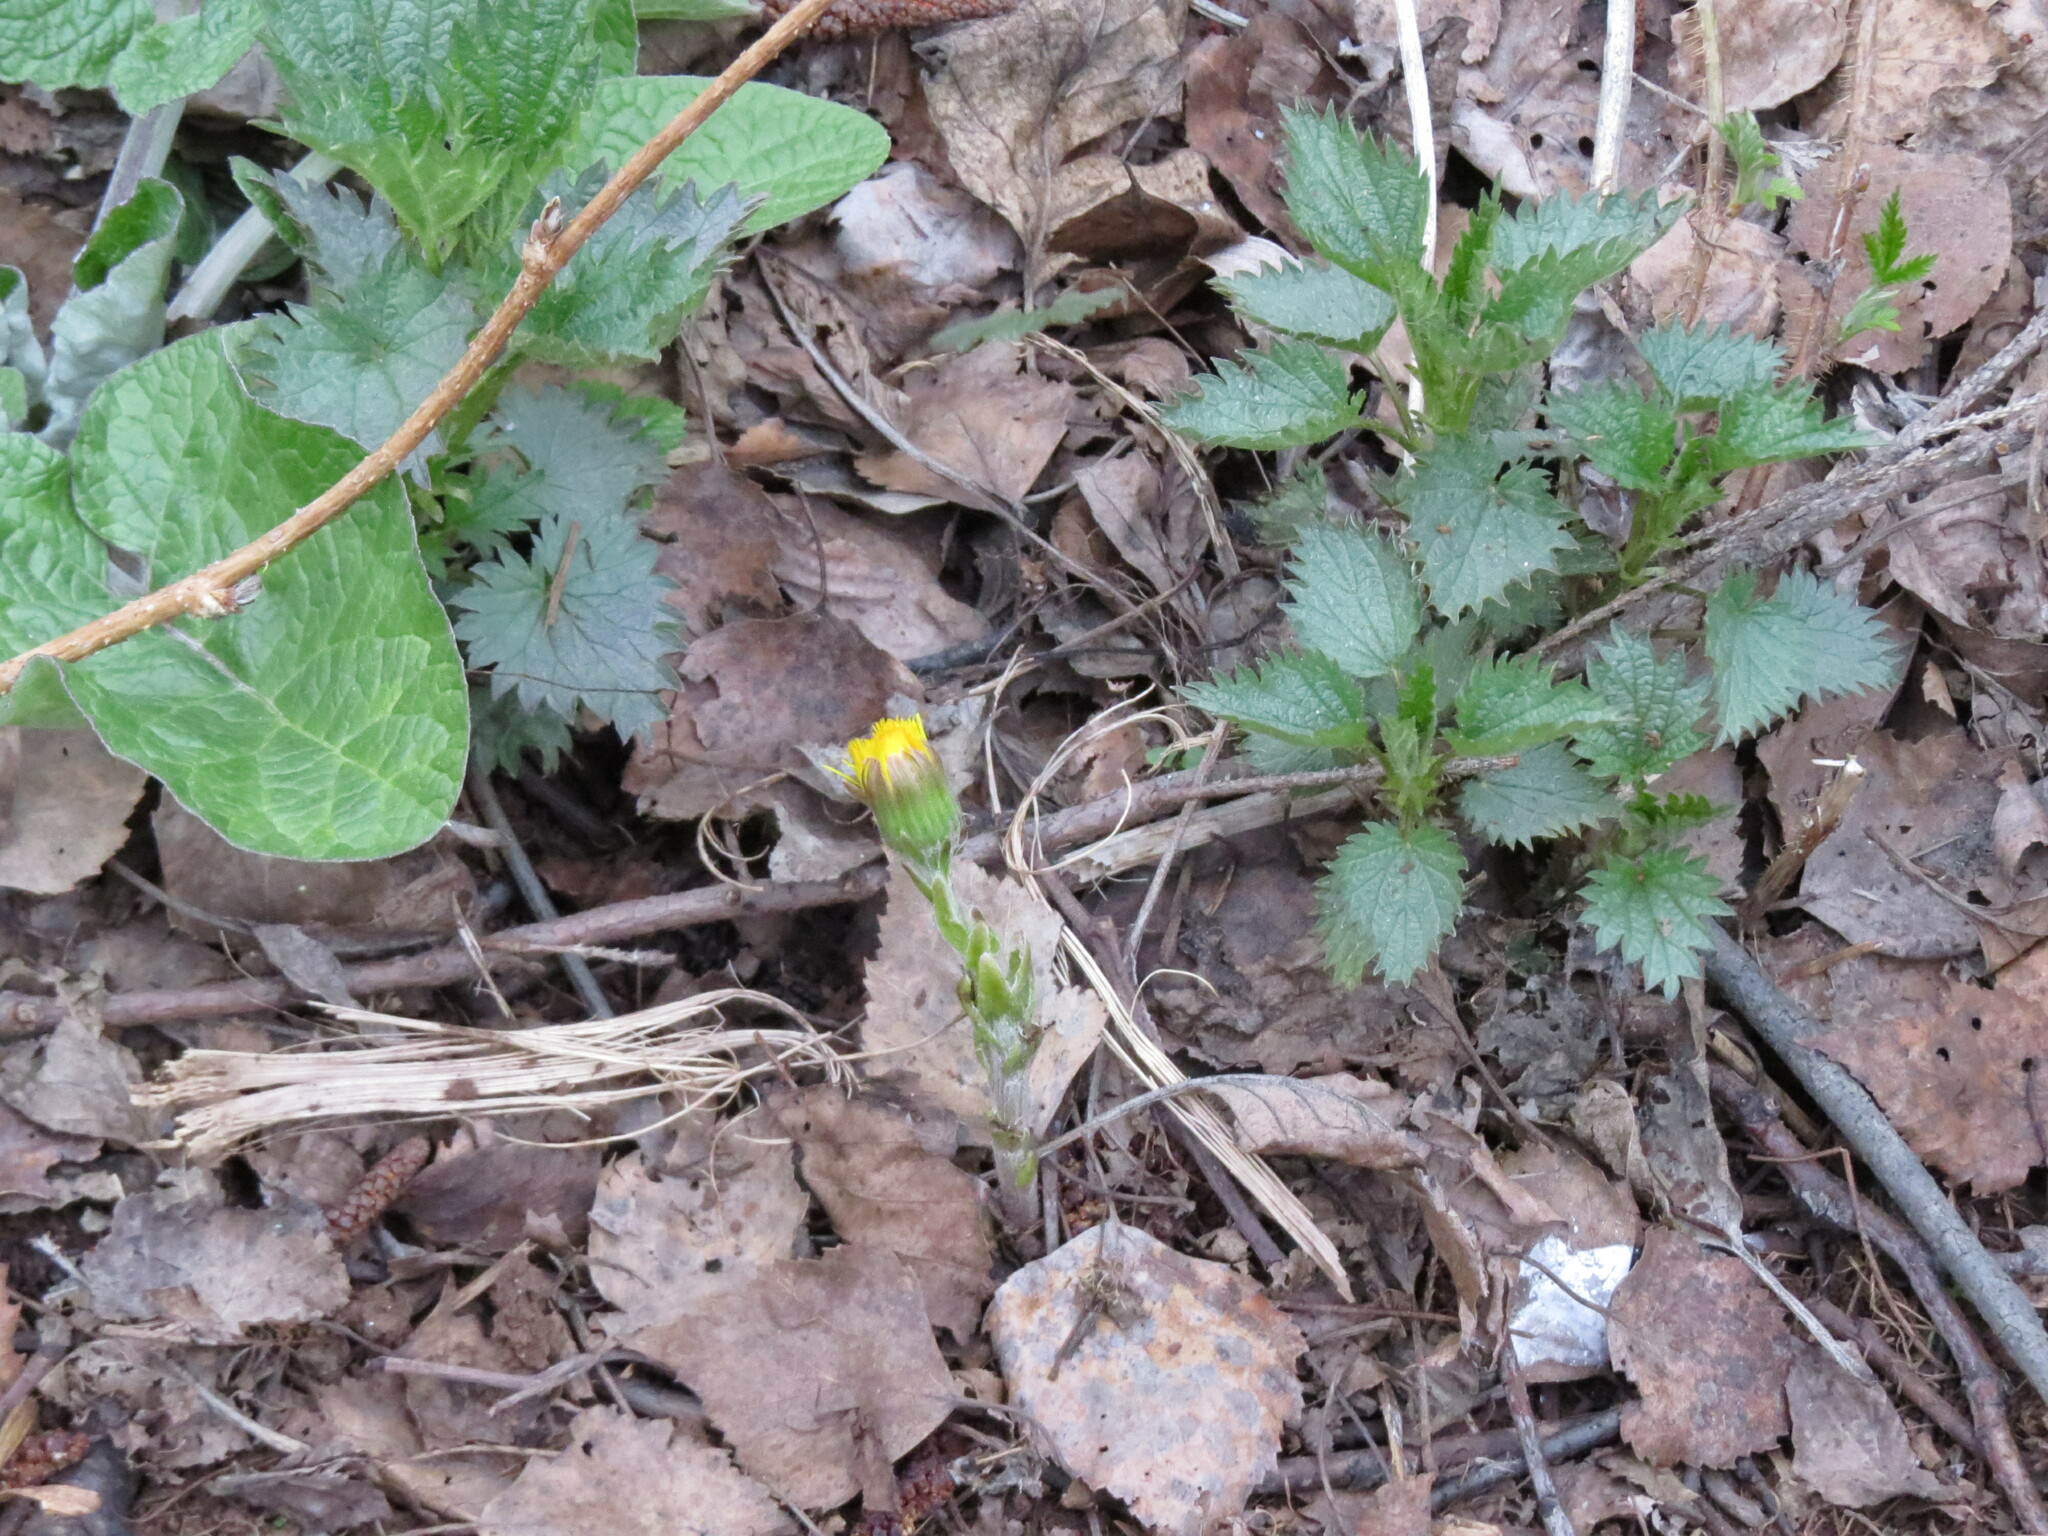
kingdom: Plantae
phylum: Tracheophyta
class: Magnoliopsida
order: Asterales
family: Asteraceae
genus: Tussilago
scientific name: Tussilago farfara
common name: Coltsfoot
